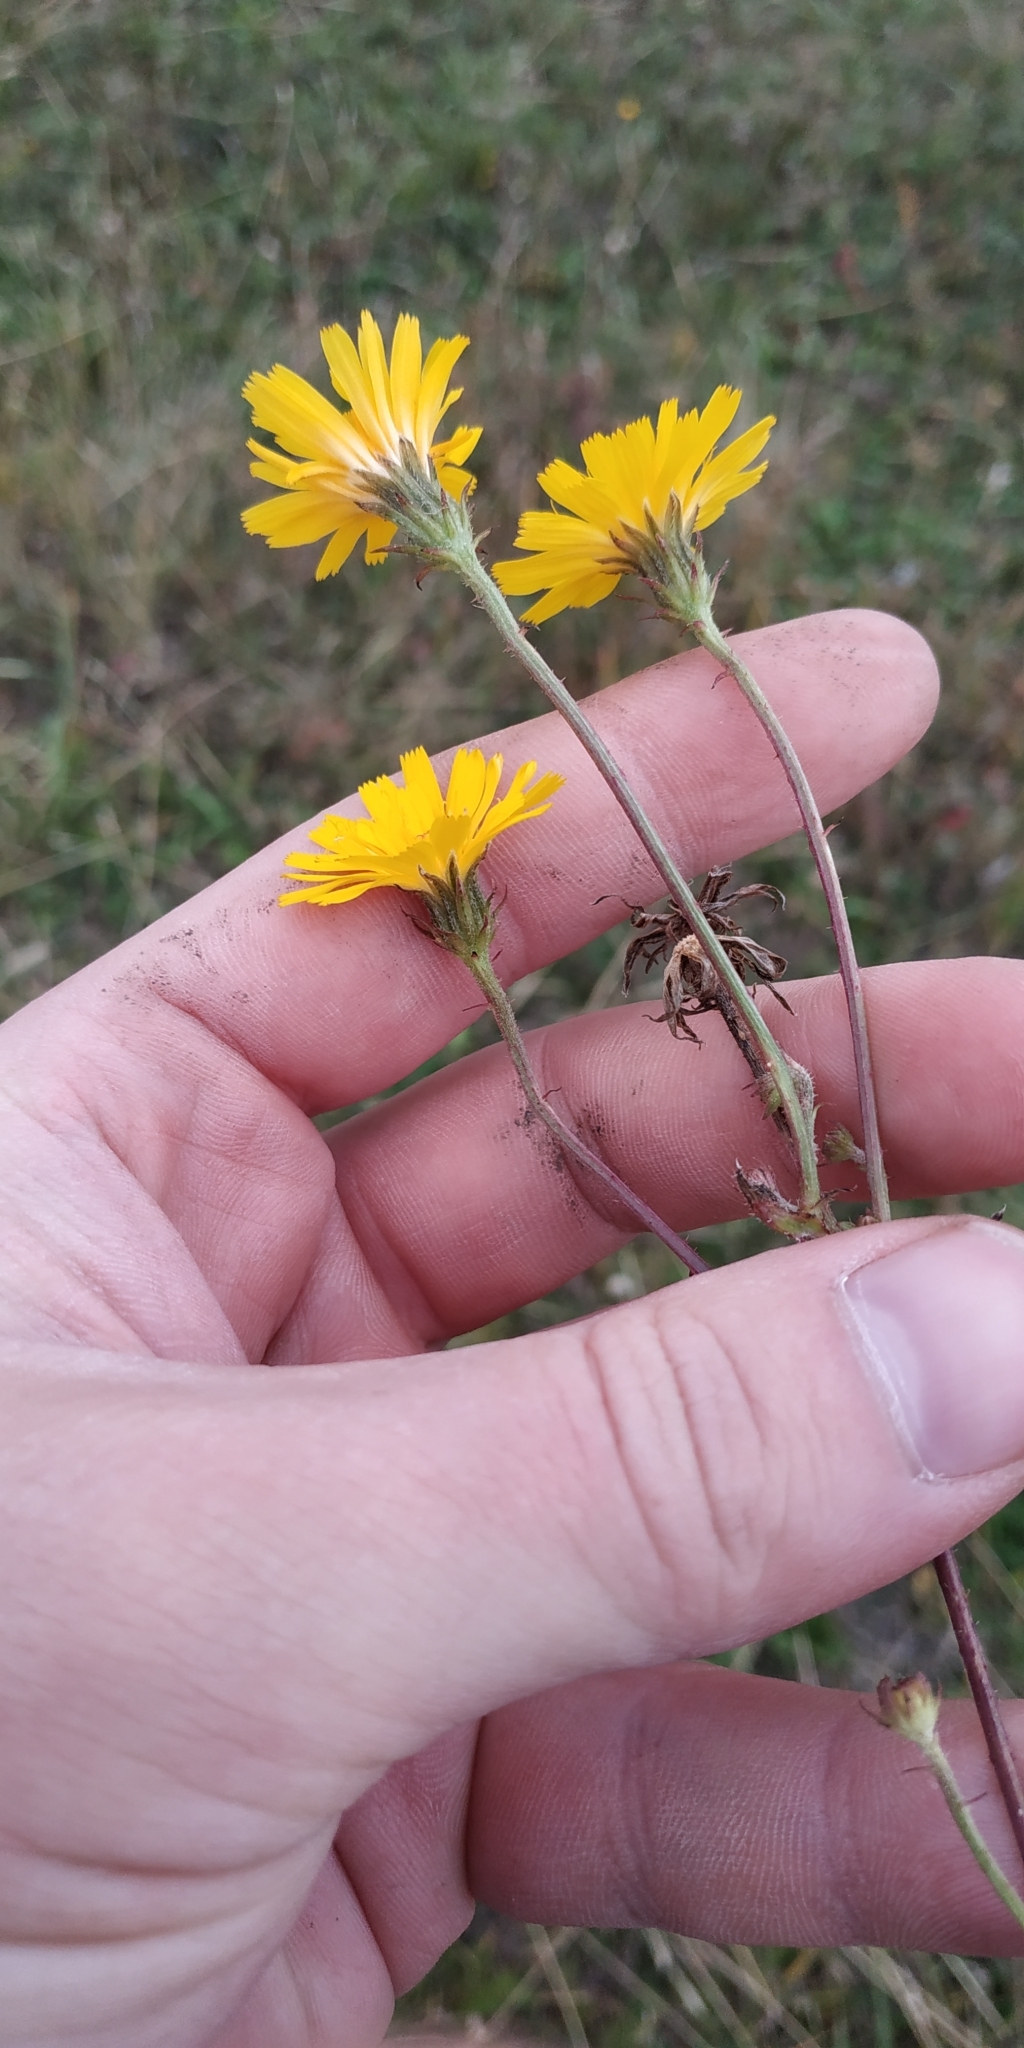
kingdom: Plantae
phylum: Tracheophyta
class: Magnoliopsida
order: Asterales
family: Asteraceae
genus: Picris
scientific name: Picris hieracioides
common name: Hawkweed oxtongue
